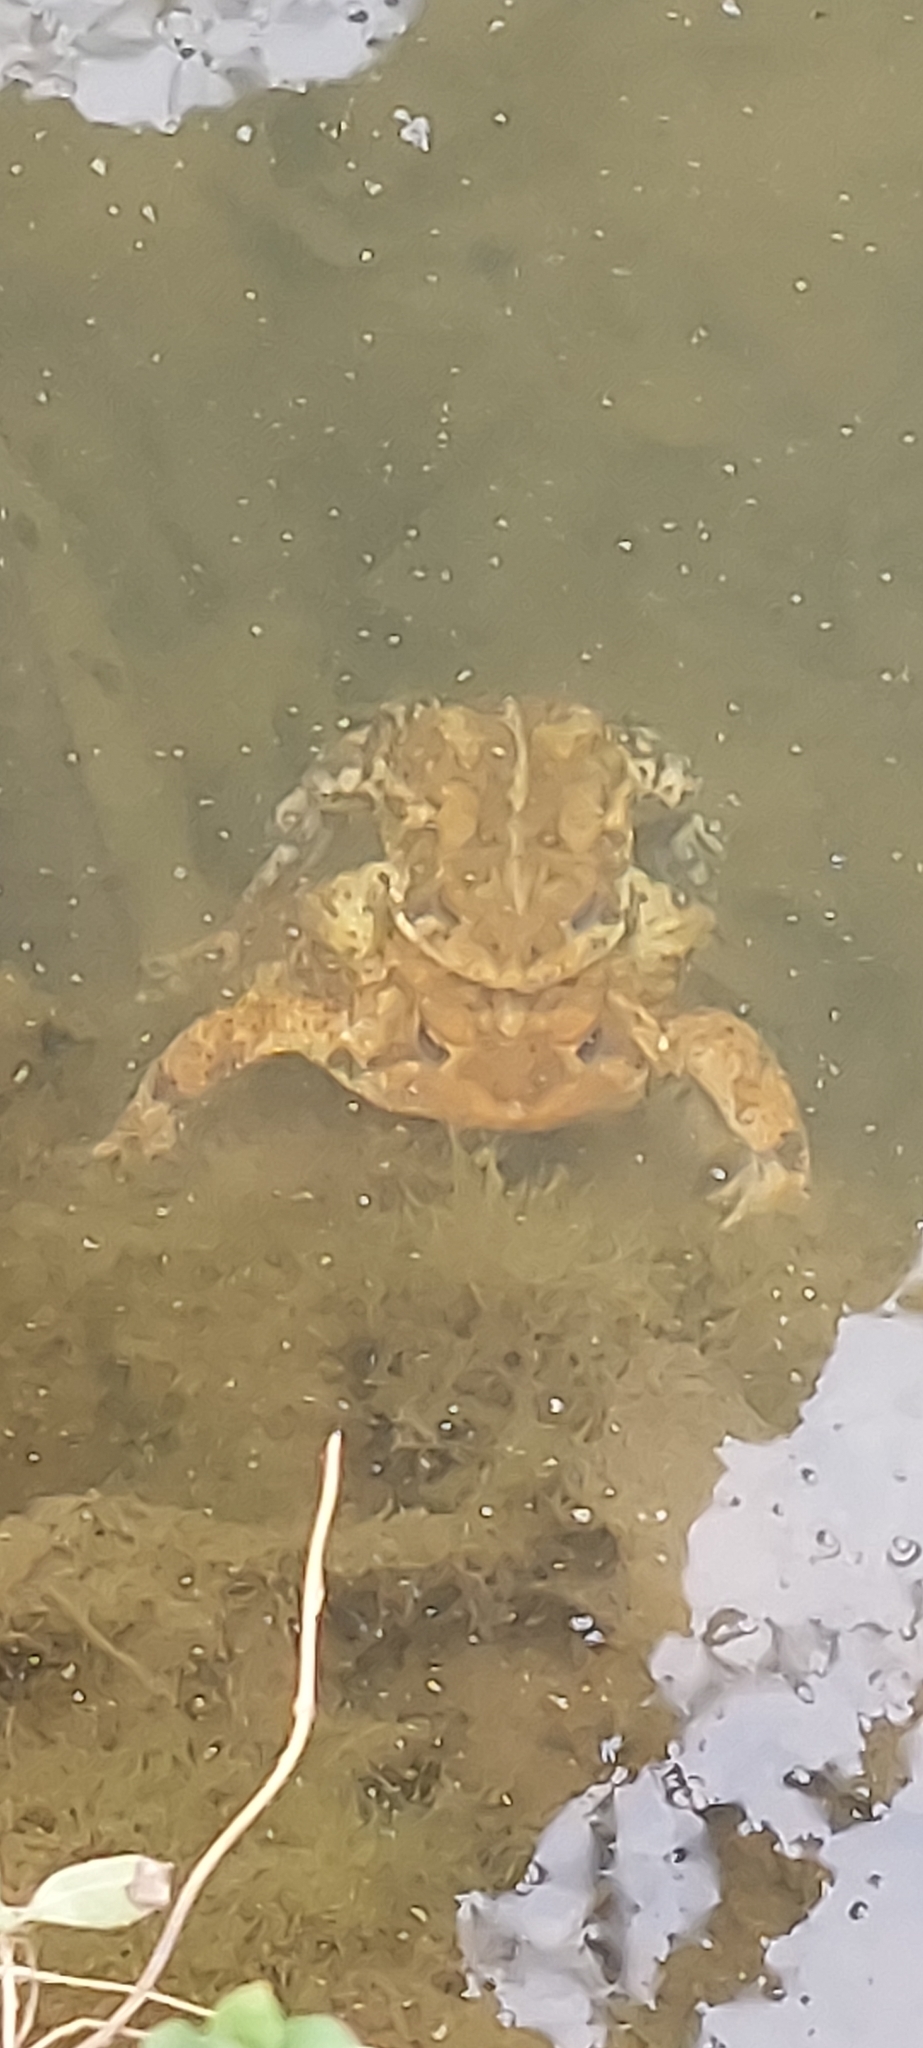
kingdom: Animalia
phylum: Chordata
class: Amphibia
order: Anura
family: Bufonidae
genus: Anaxyrus
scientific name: Anaxyrus americanus
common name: American toad
